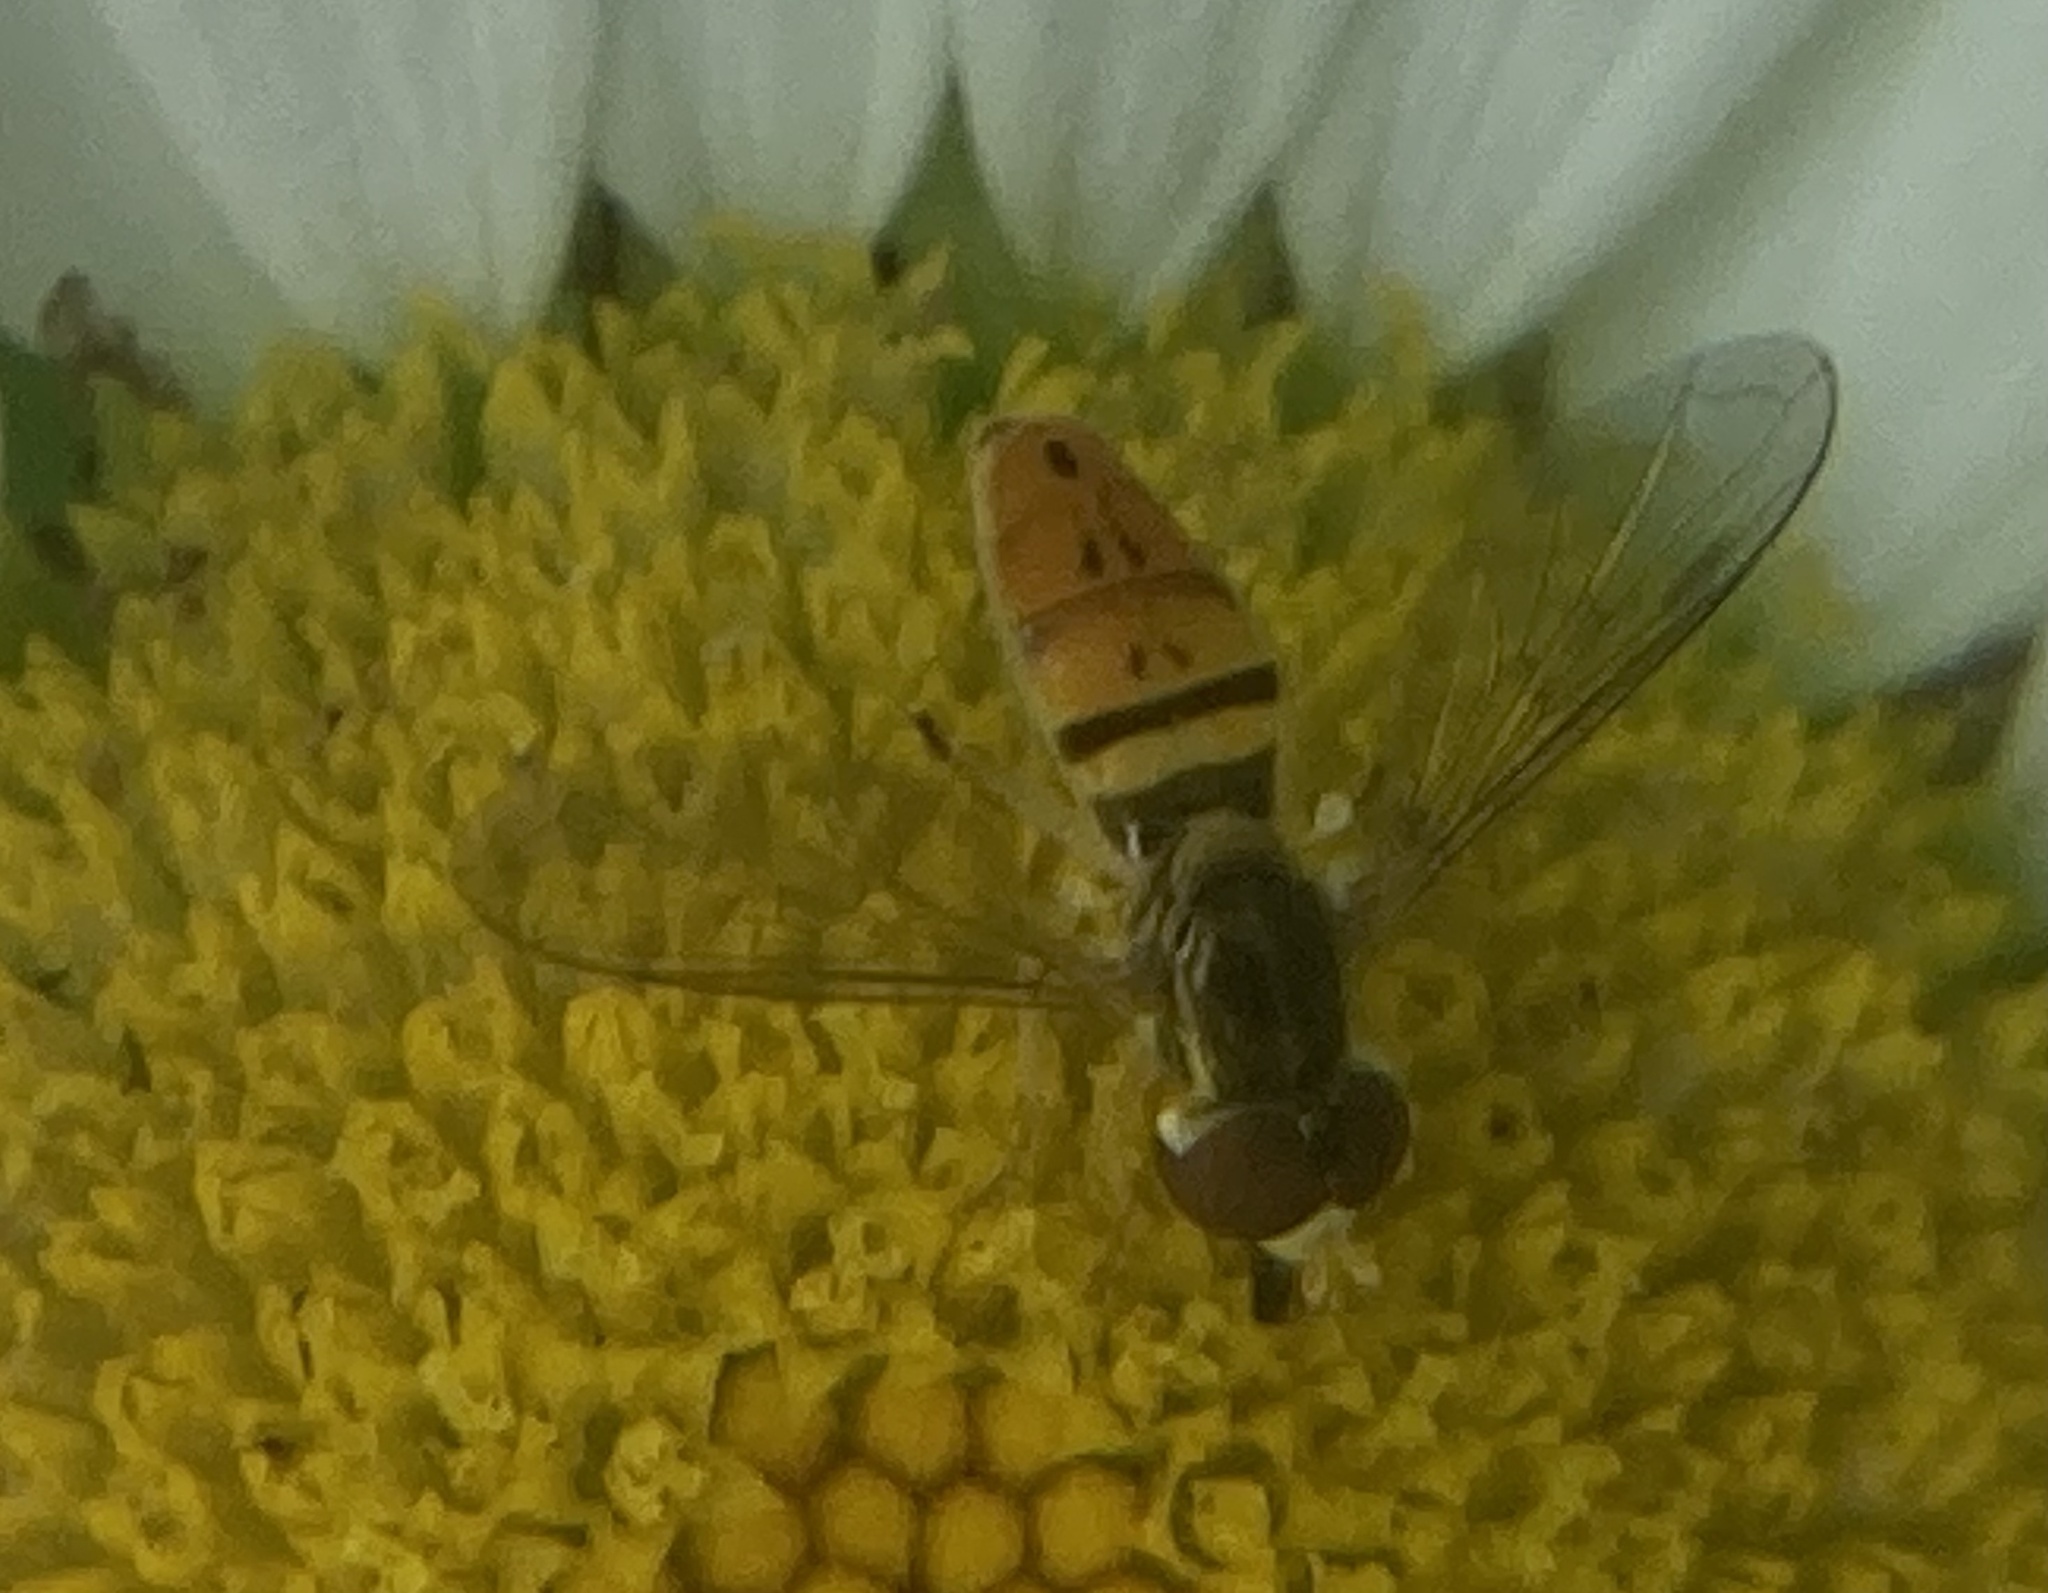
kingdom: Animalia
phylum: Arthropoda
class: Insecta
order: Diptera
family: Syrphidae
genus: Toxomerus
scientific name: Toxomerus marginatus
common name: Syrphid fly
